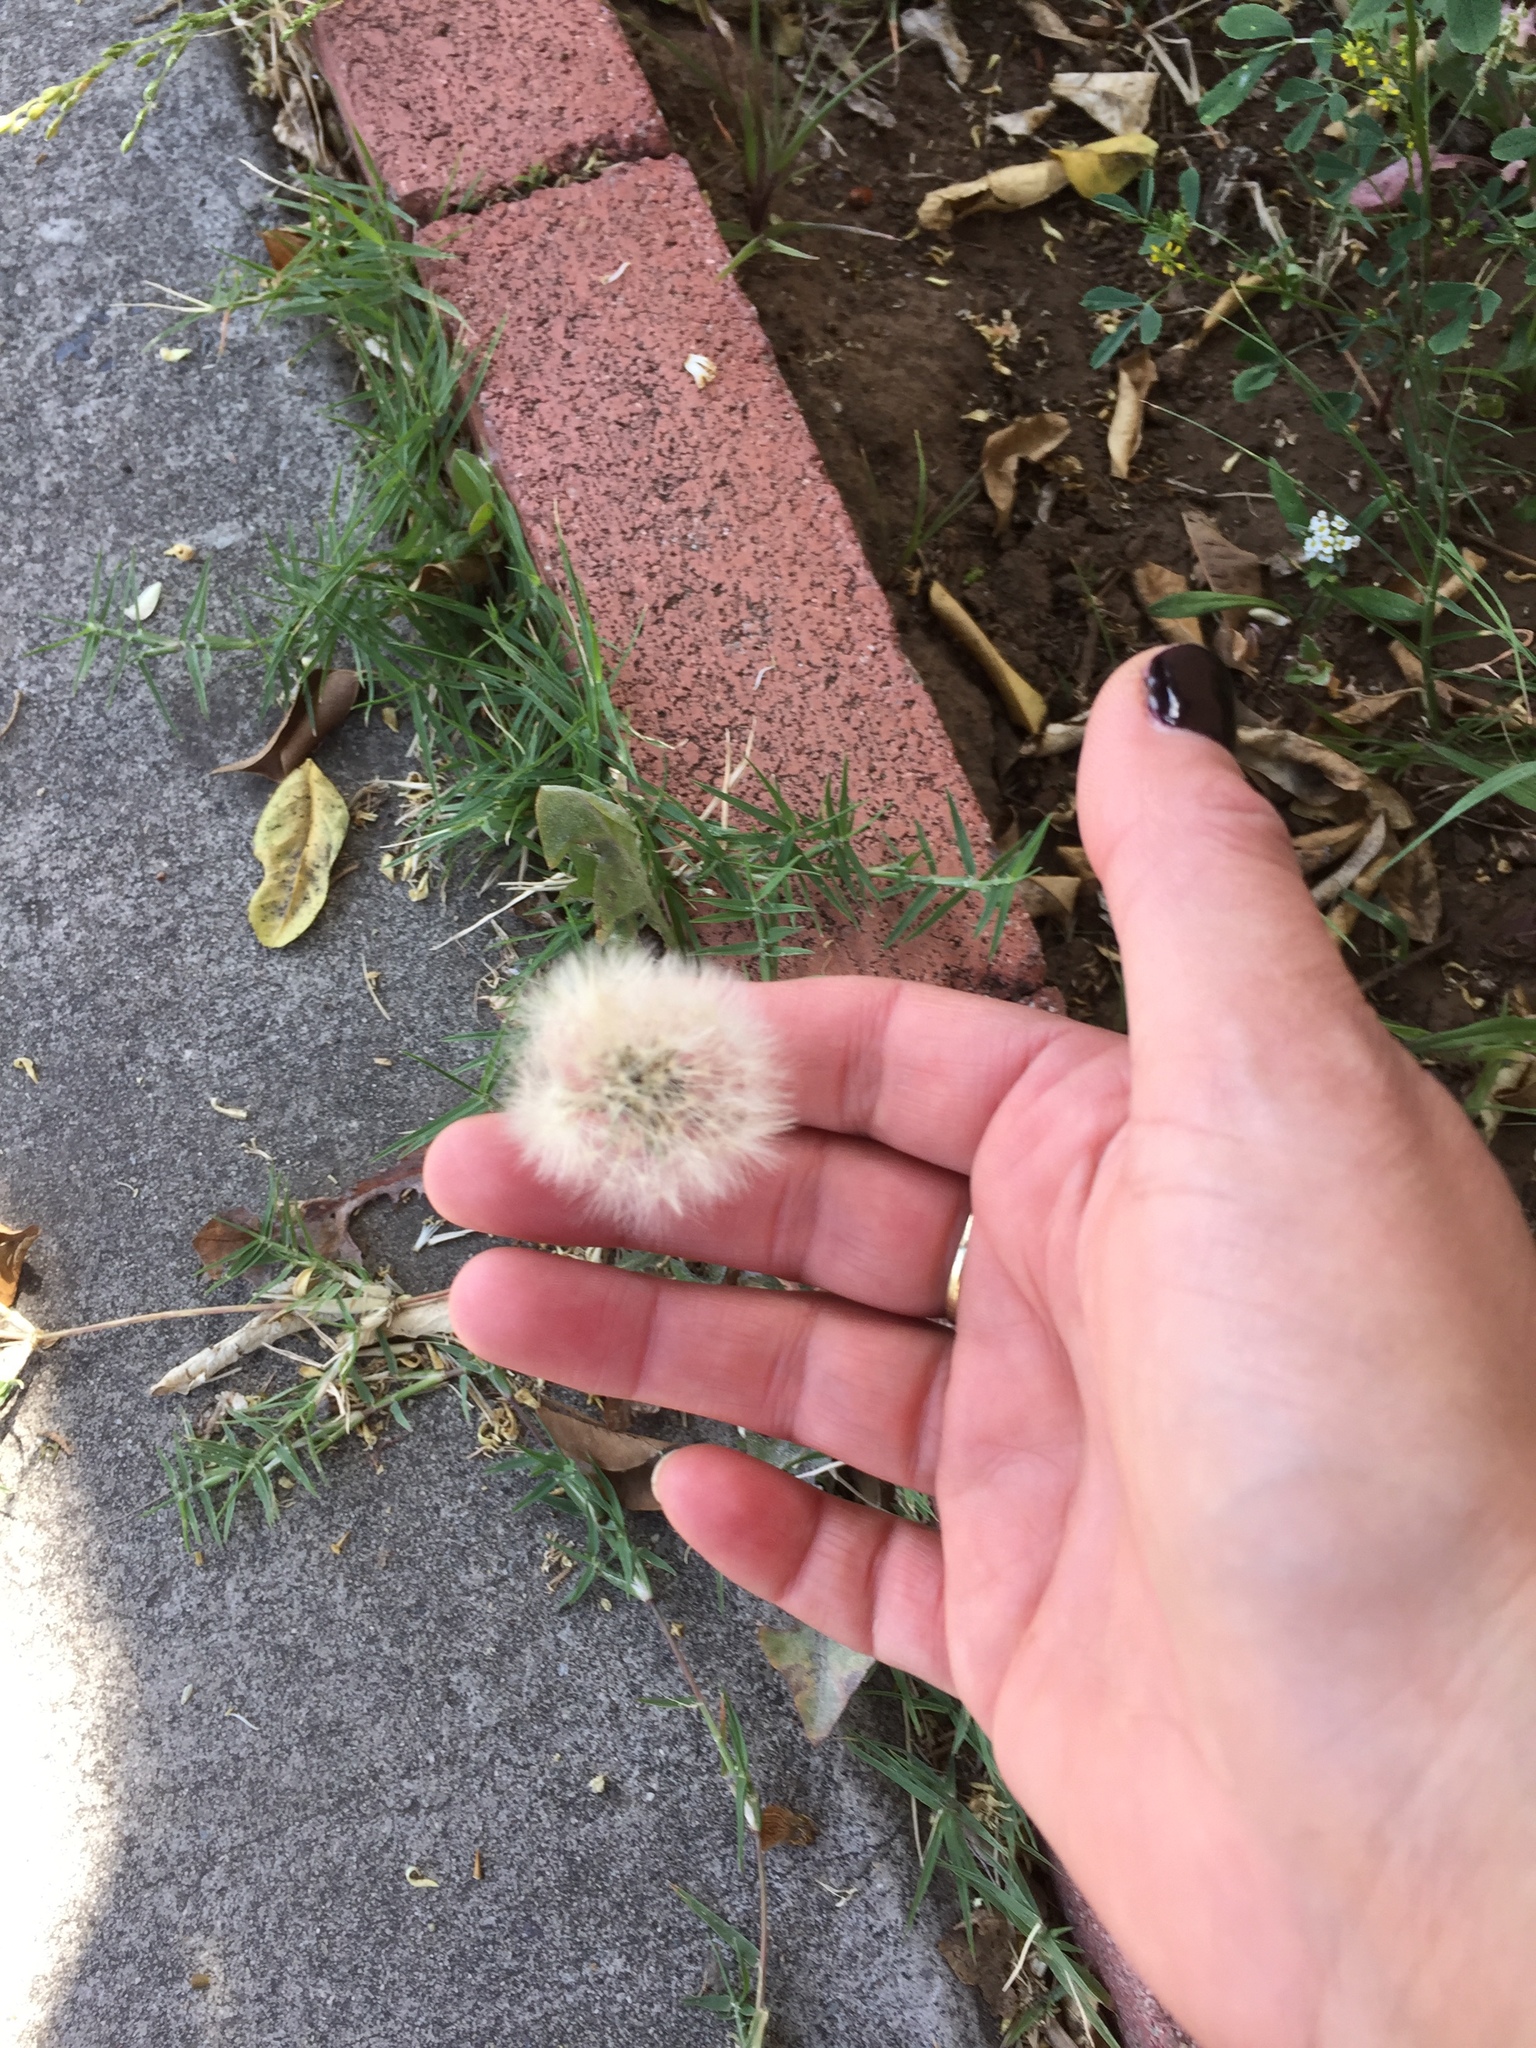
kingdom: Plantae
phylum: Tracheophyta
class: Magnoliopsida
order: Asterales
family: Asteraceae
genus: Taraxacum
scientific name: Taraxacum erythrospermum
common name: Rock dandelion
